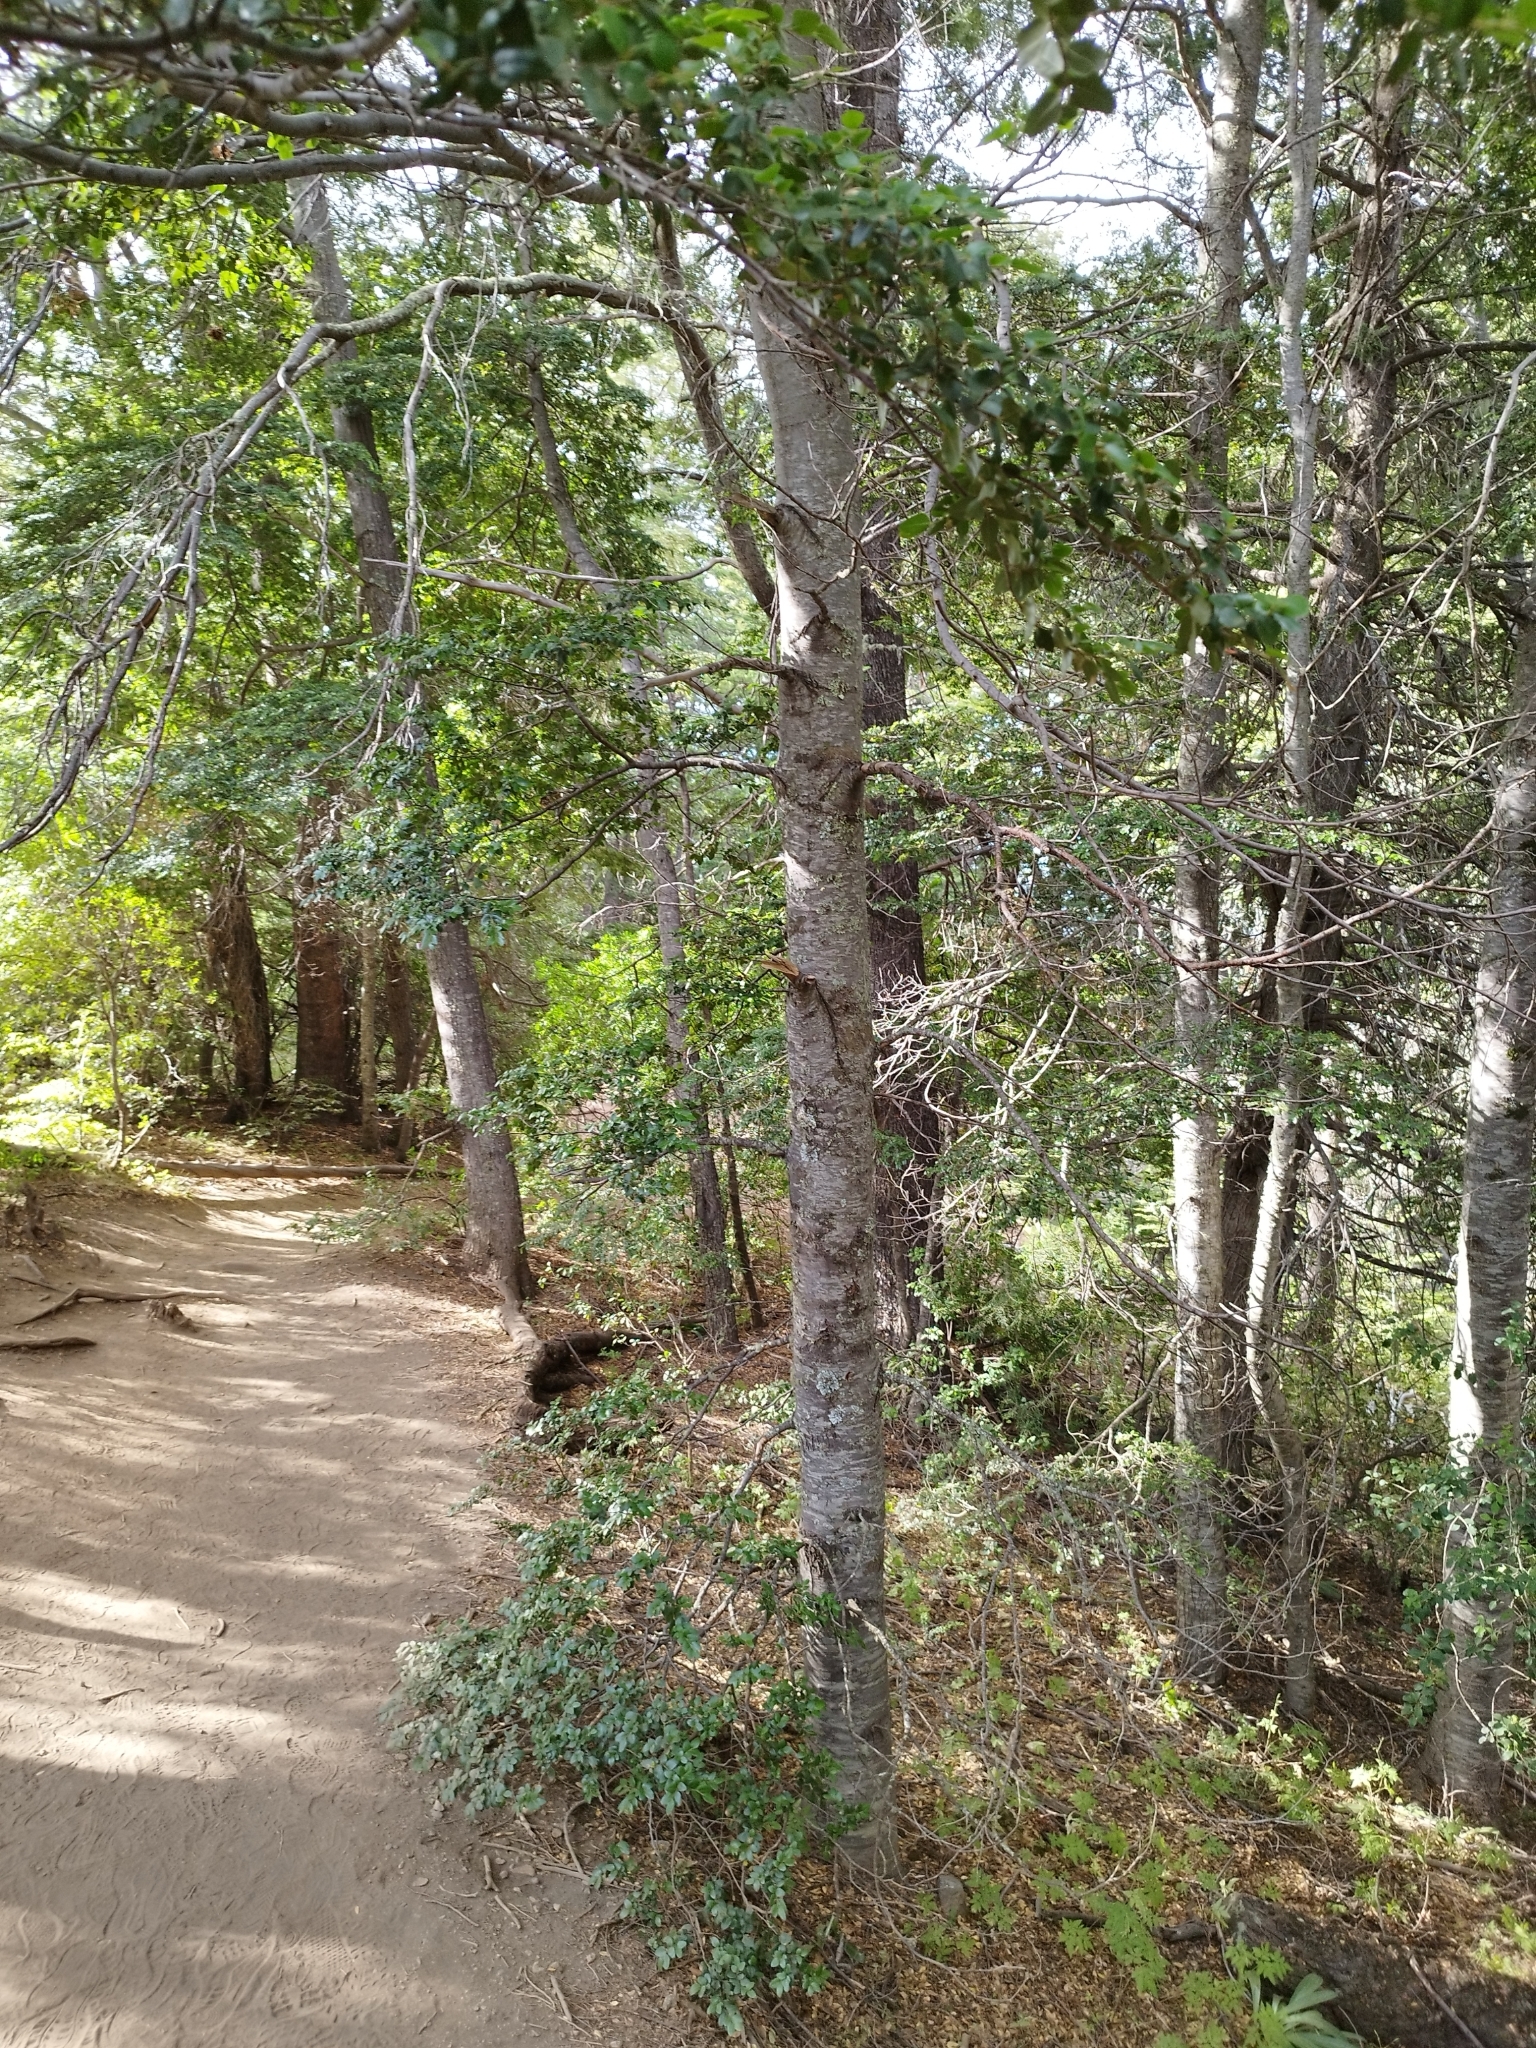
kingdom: Plantae
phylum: Tracheophyta
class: Magnoliopsida
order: Fagales
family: Nothofagaceae
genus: Nothofagus
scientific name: Nothofagus dombeyi
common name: Coigue
